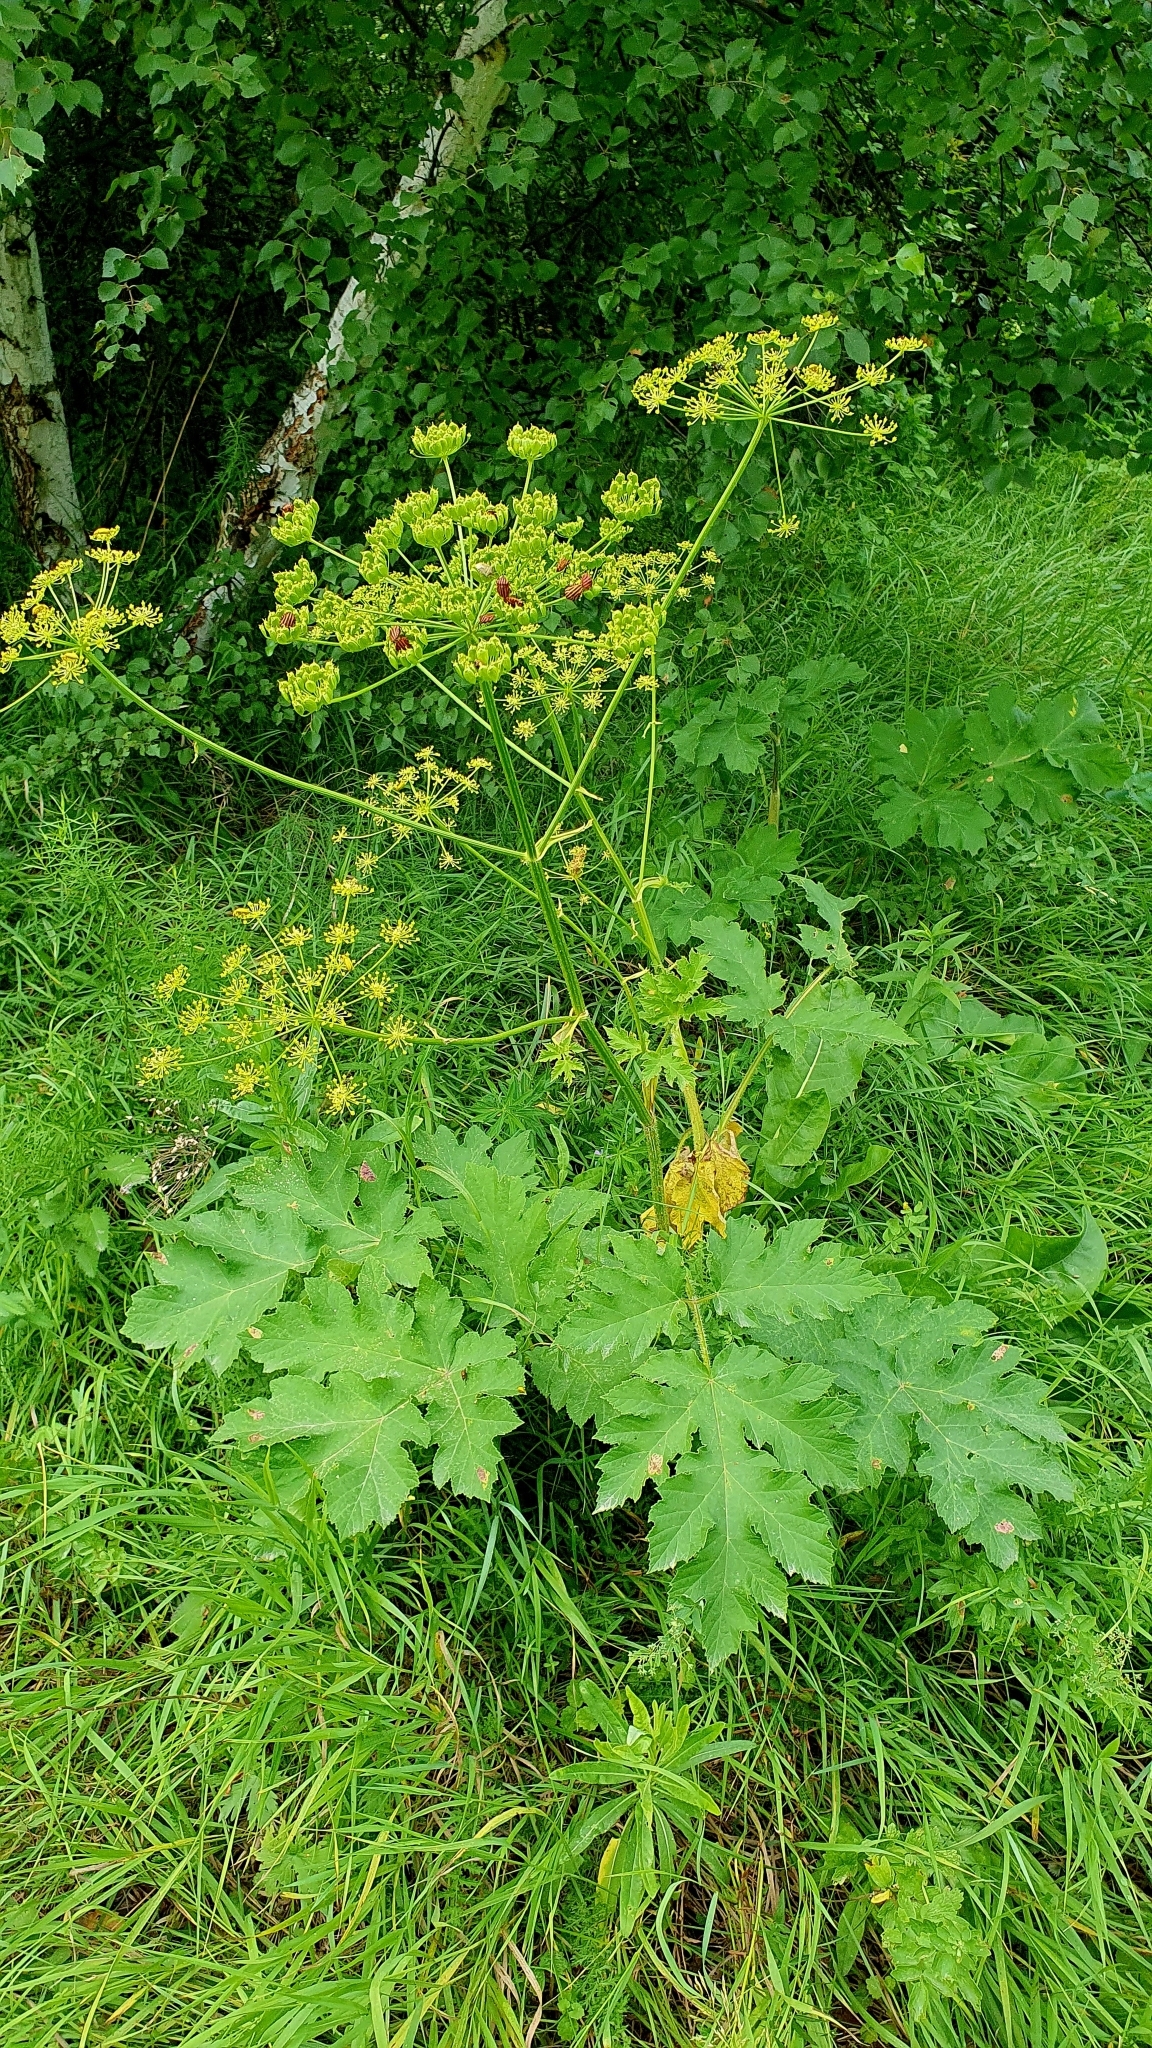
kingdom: Plantae
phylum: Tracheophyta
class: Magnoliopsida
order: Apiales
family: Apiaceae
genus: Heracleum
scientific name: Heracleum sphondylium
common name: Hogweed
